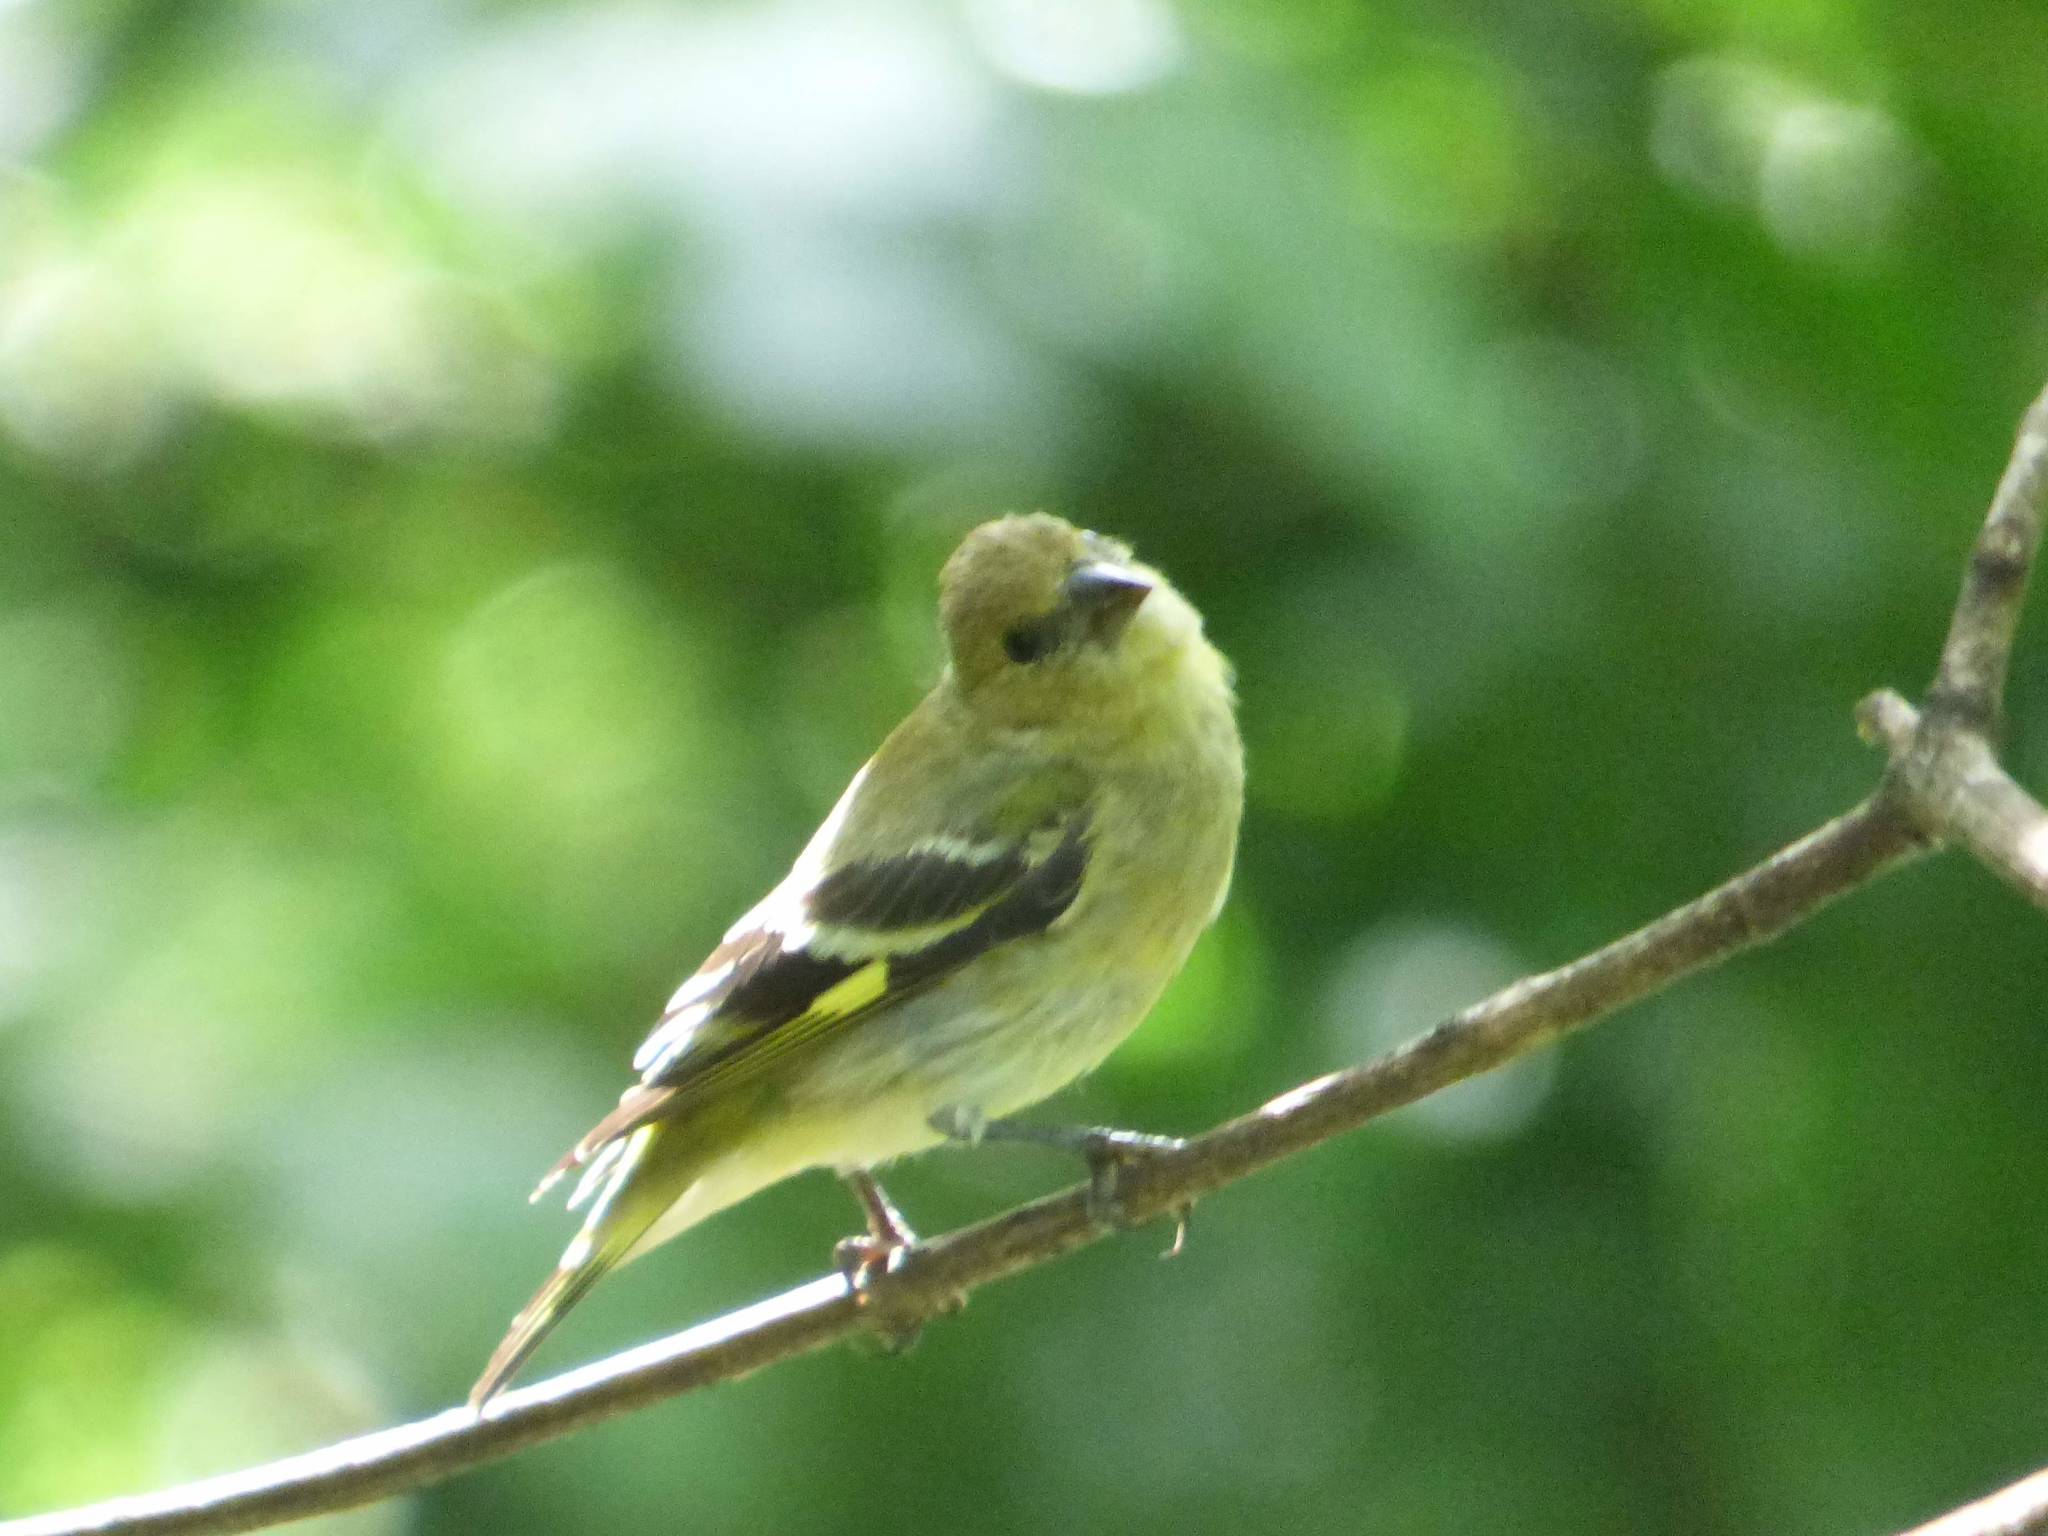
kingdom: Animalia
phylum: Chordata
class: Aves
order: Passeriformes
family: Fringillidae
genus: Spinus
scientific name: Spinus magellanicus
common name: Hooded siskin
